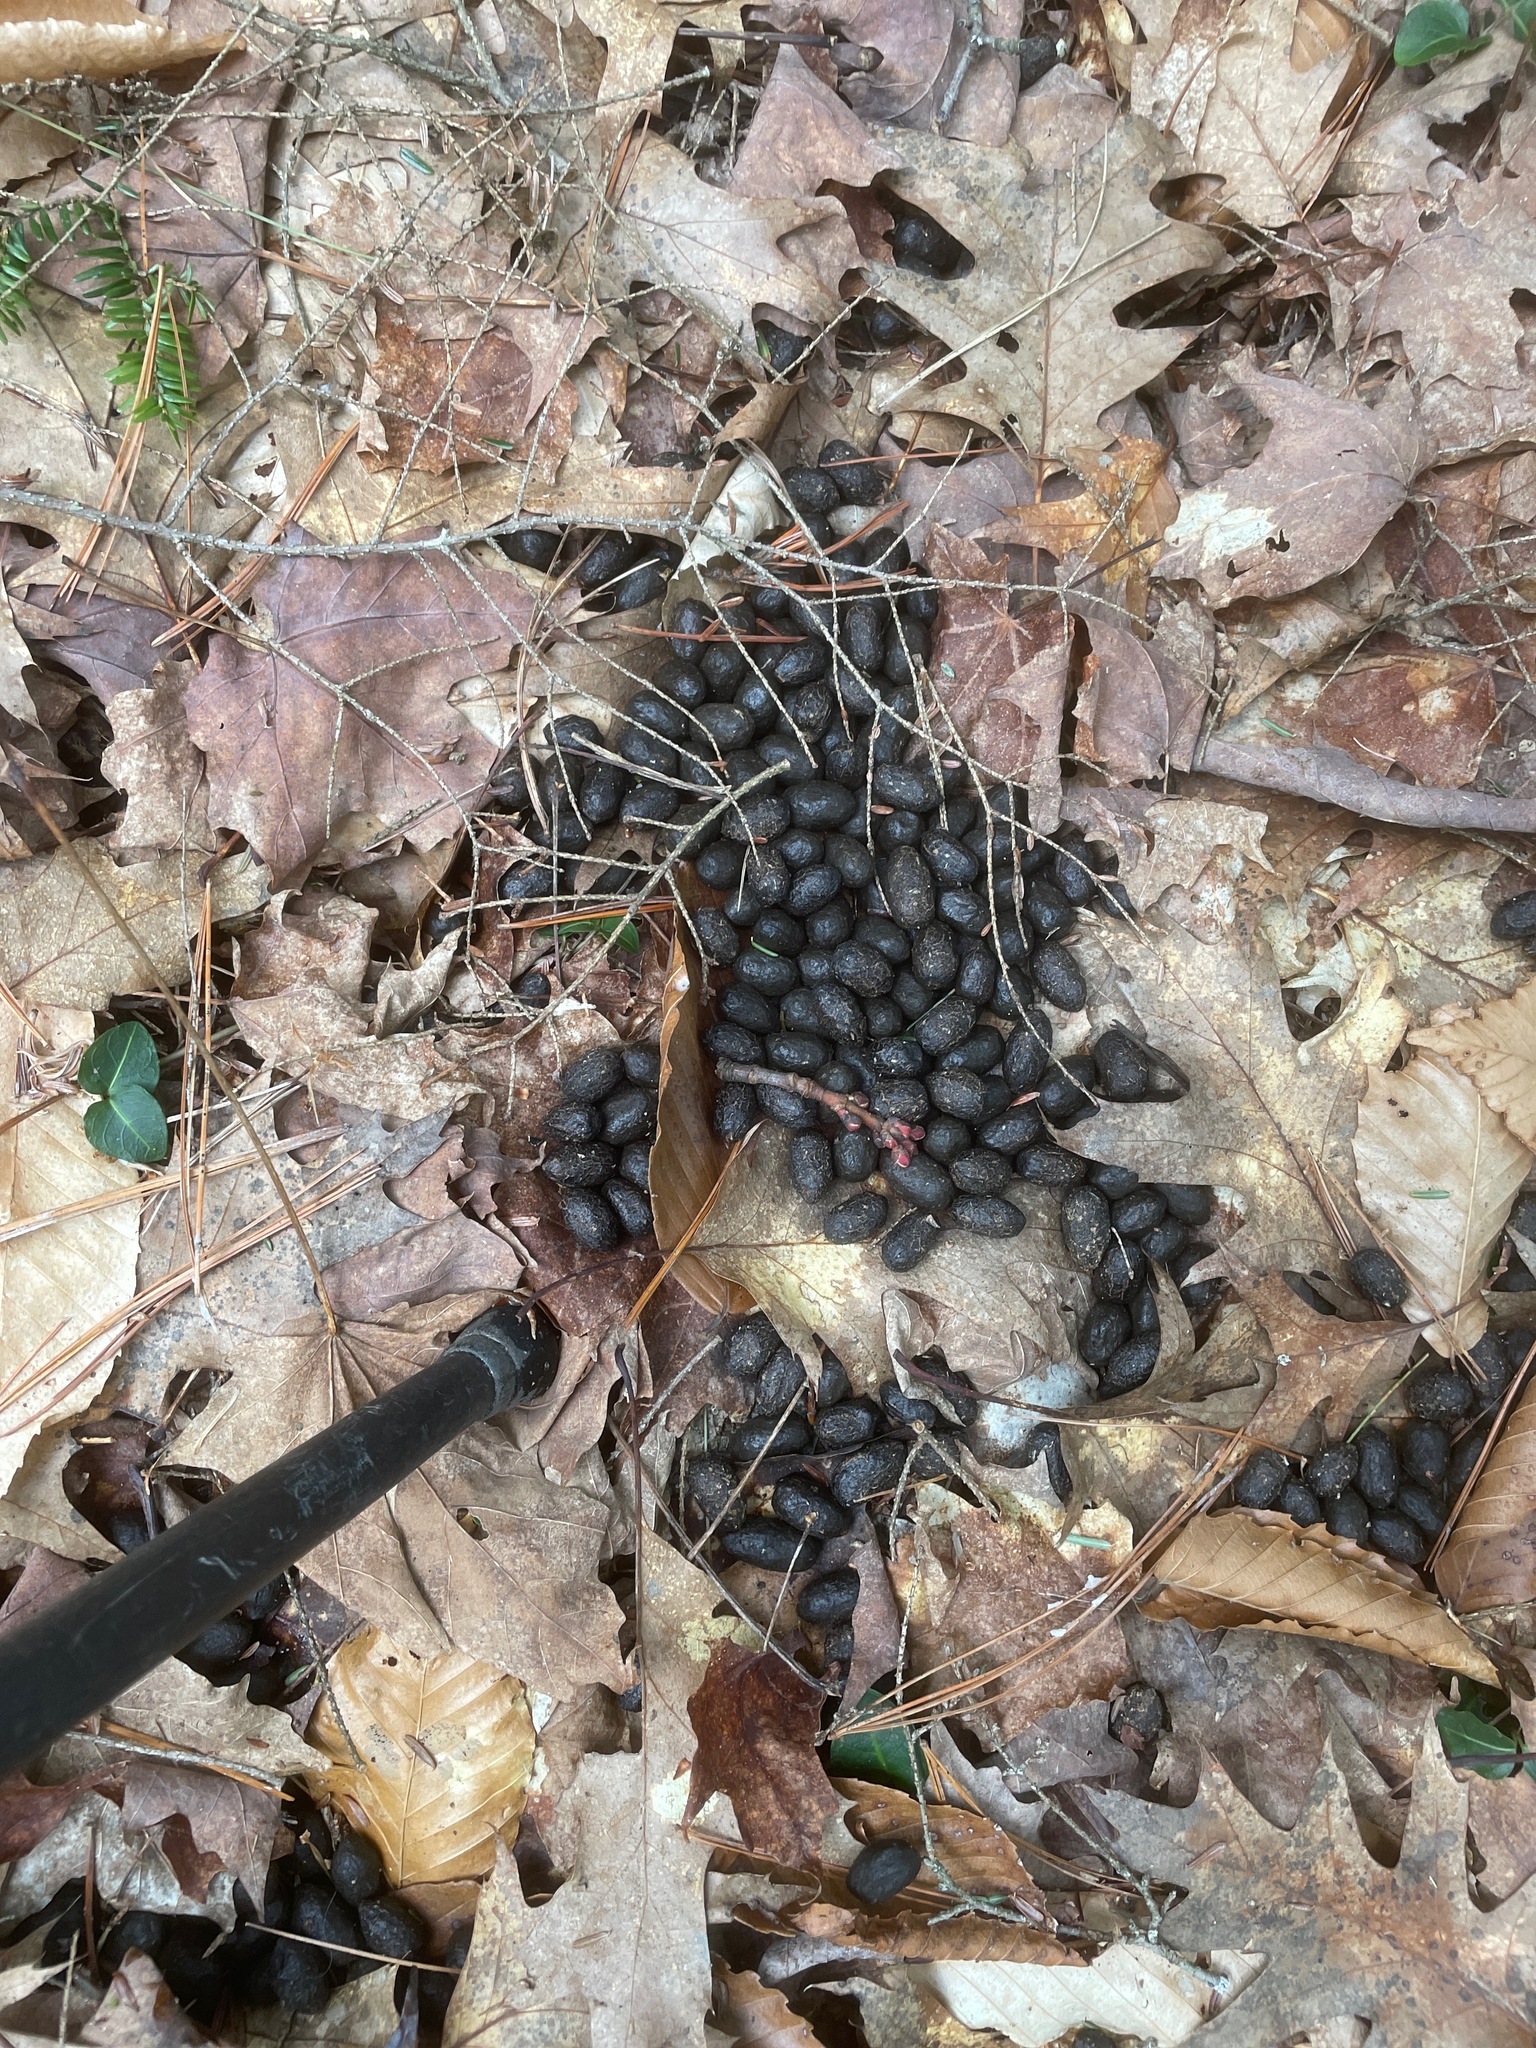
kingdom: Animalia
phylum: Chordata
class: Mammalia
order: Artiodactyla
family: Cervidae
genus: Odocoileus
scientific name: Odocoileus virginianus
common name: White-tailed deer
